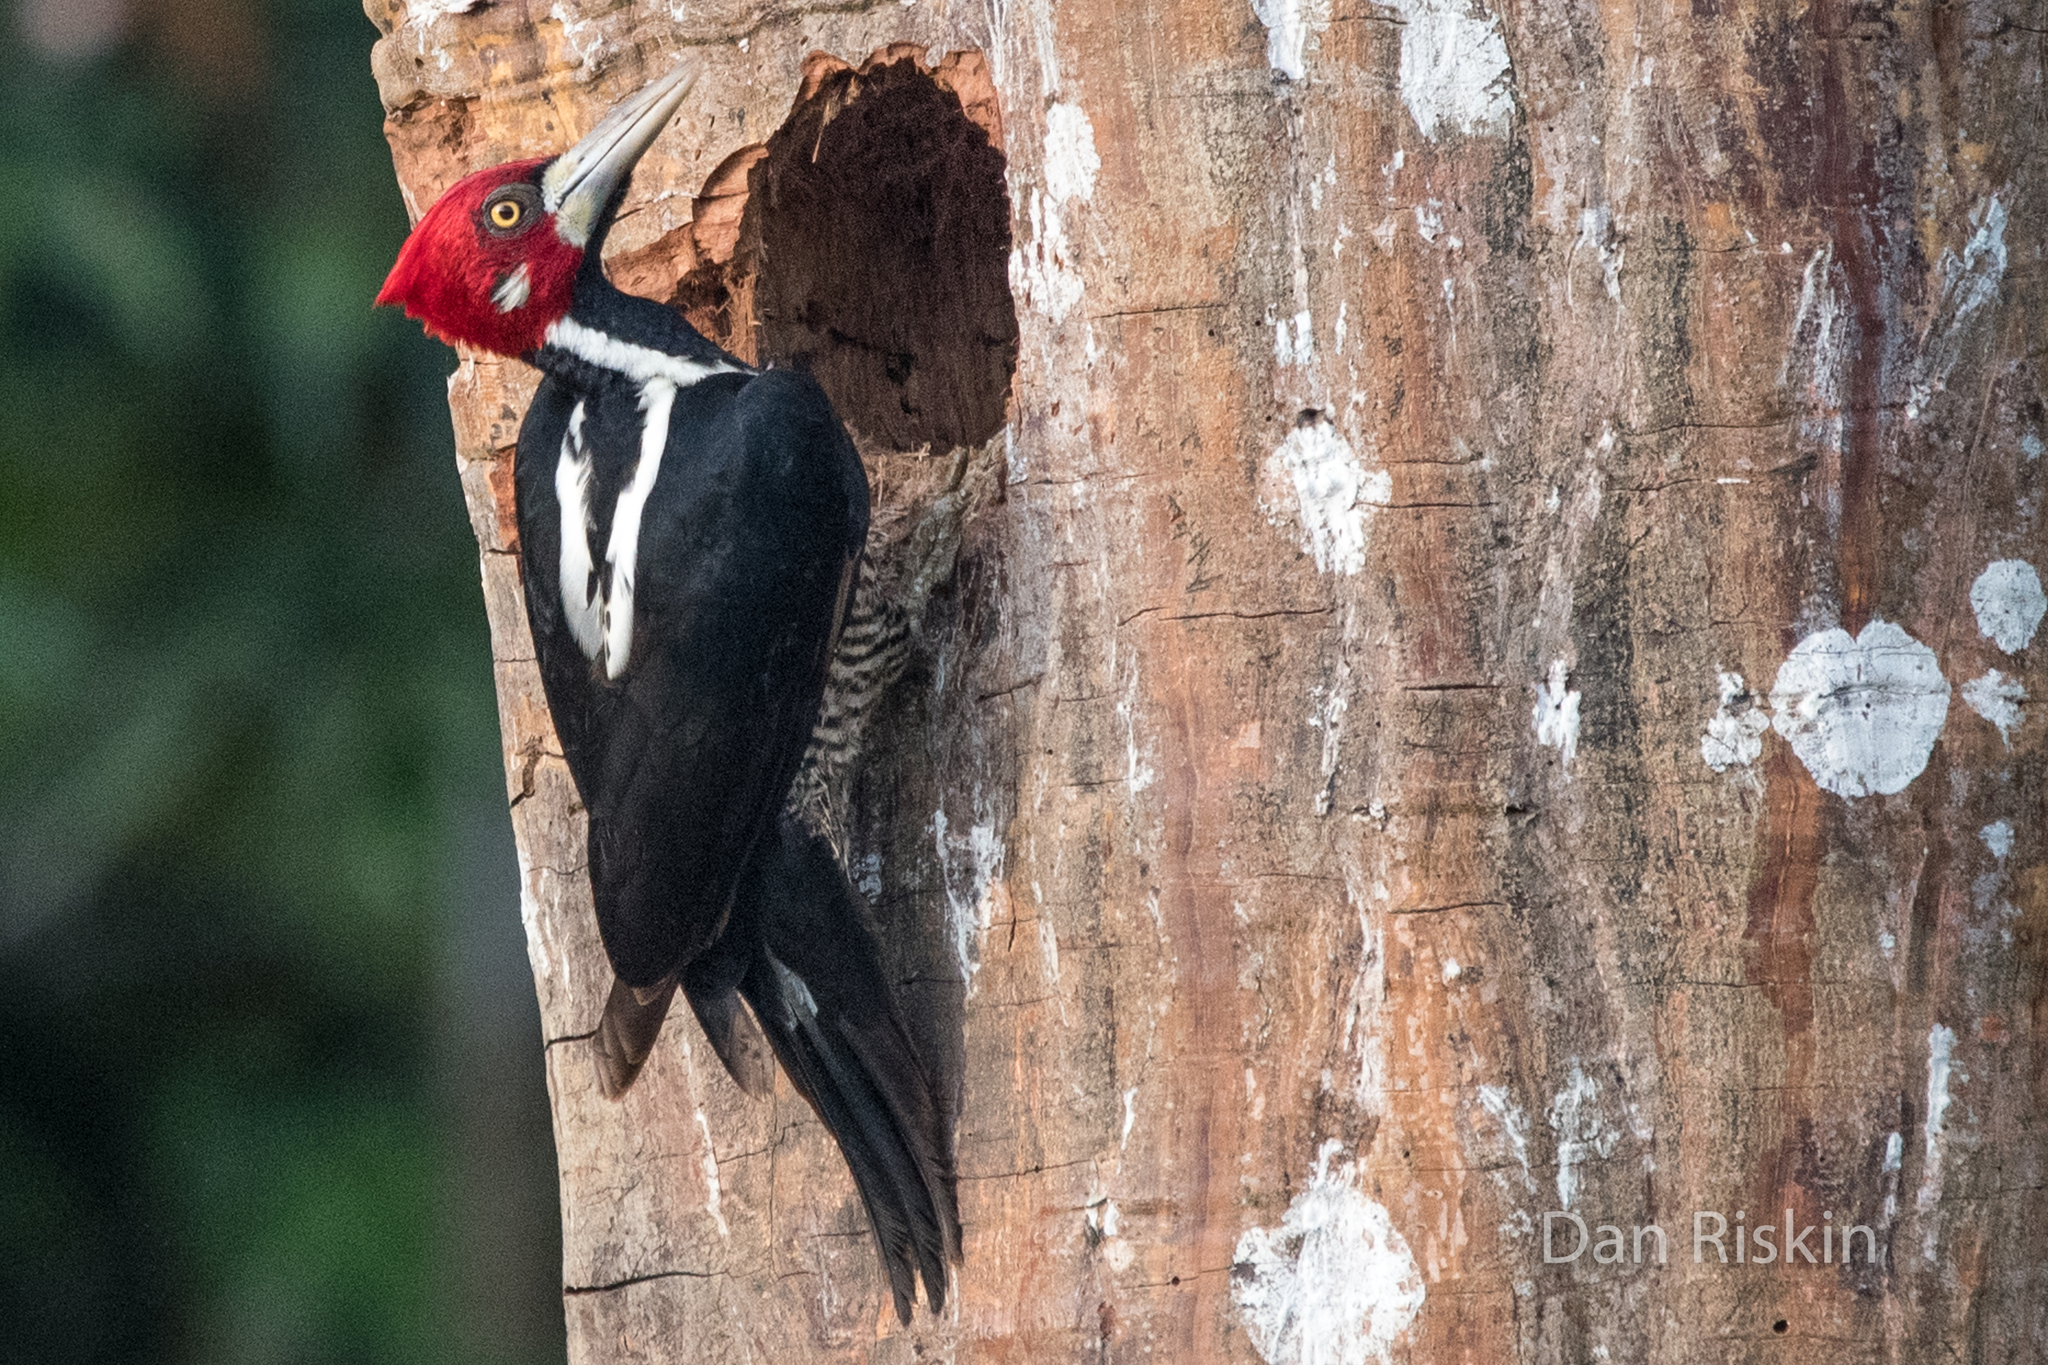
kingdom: Animalia
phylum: Chordata
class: Aves
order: Piciformes
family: Picidae
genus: Campephilus
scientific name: Campephilus melanoleucos
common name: Crimson-crested woodpecker
